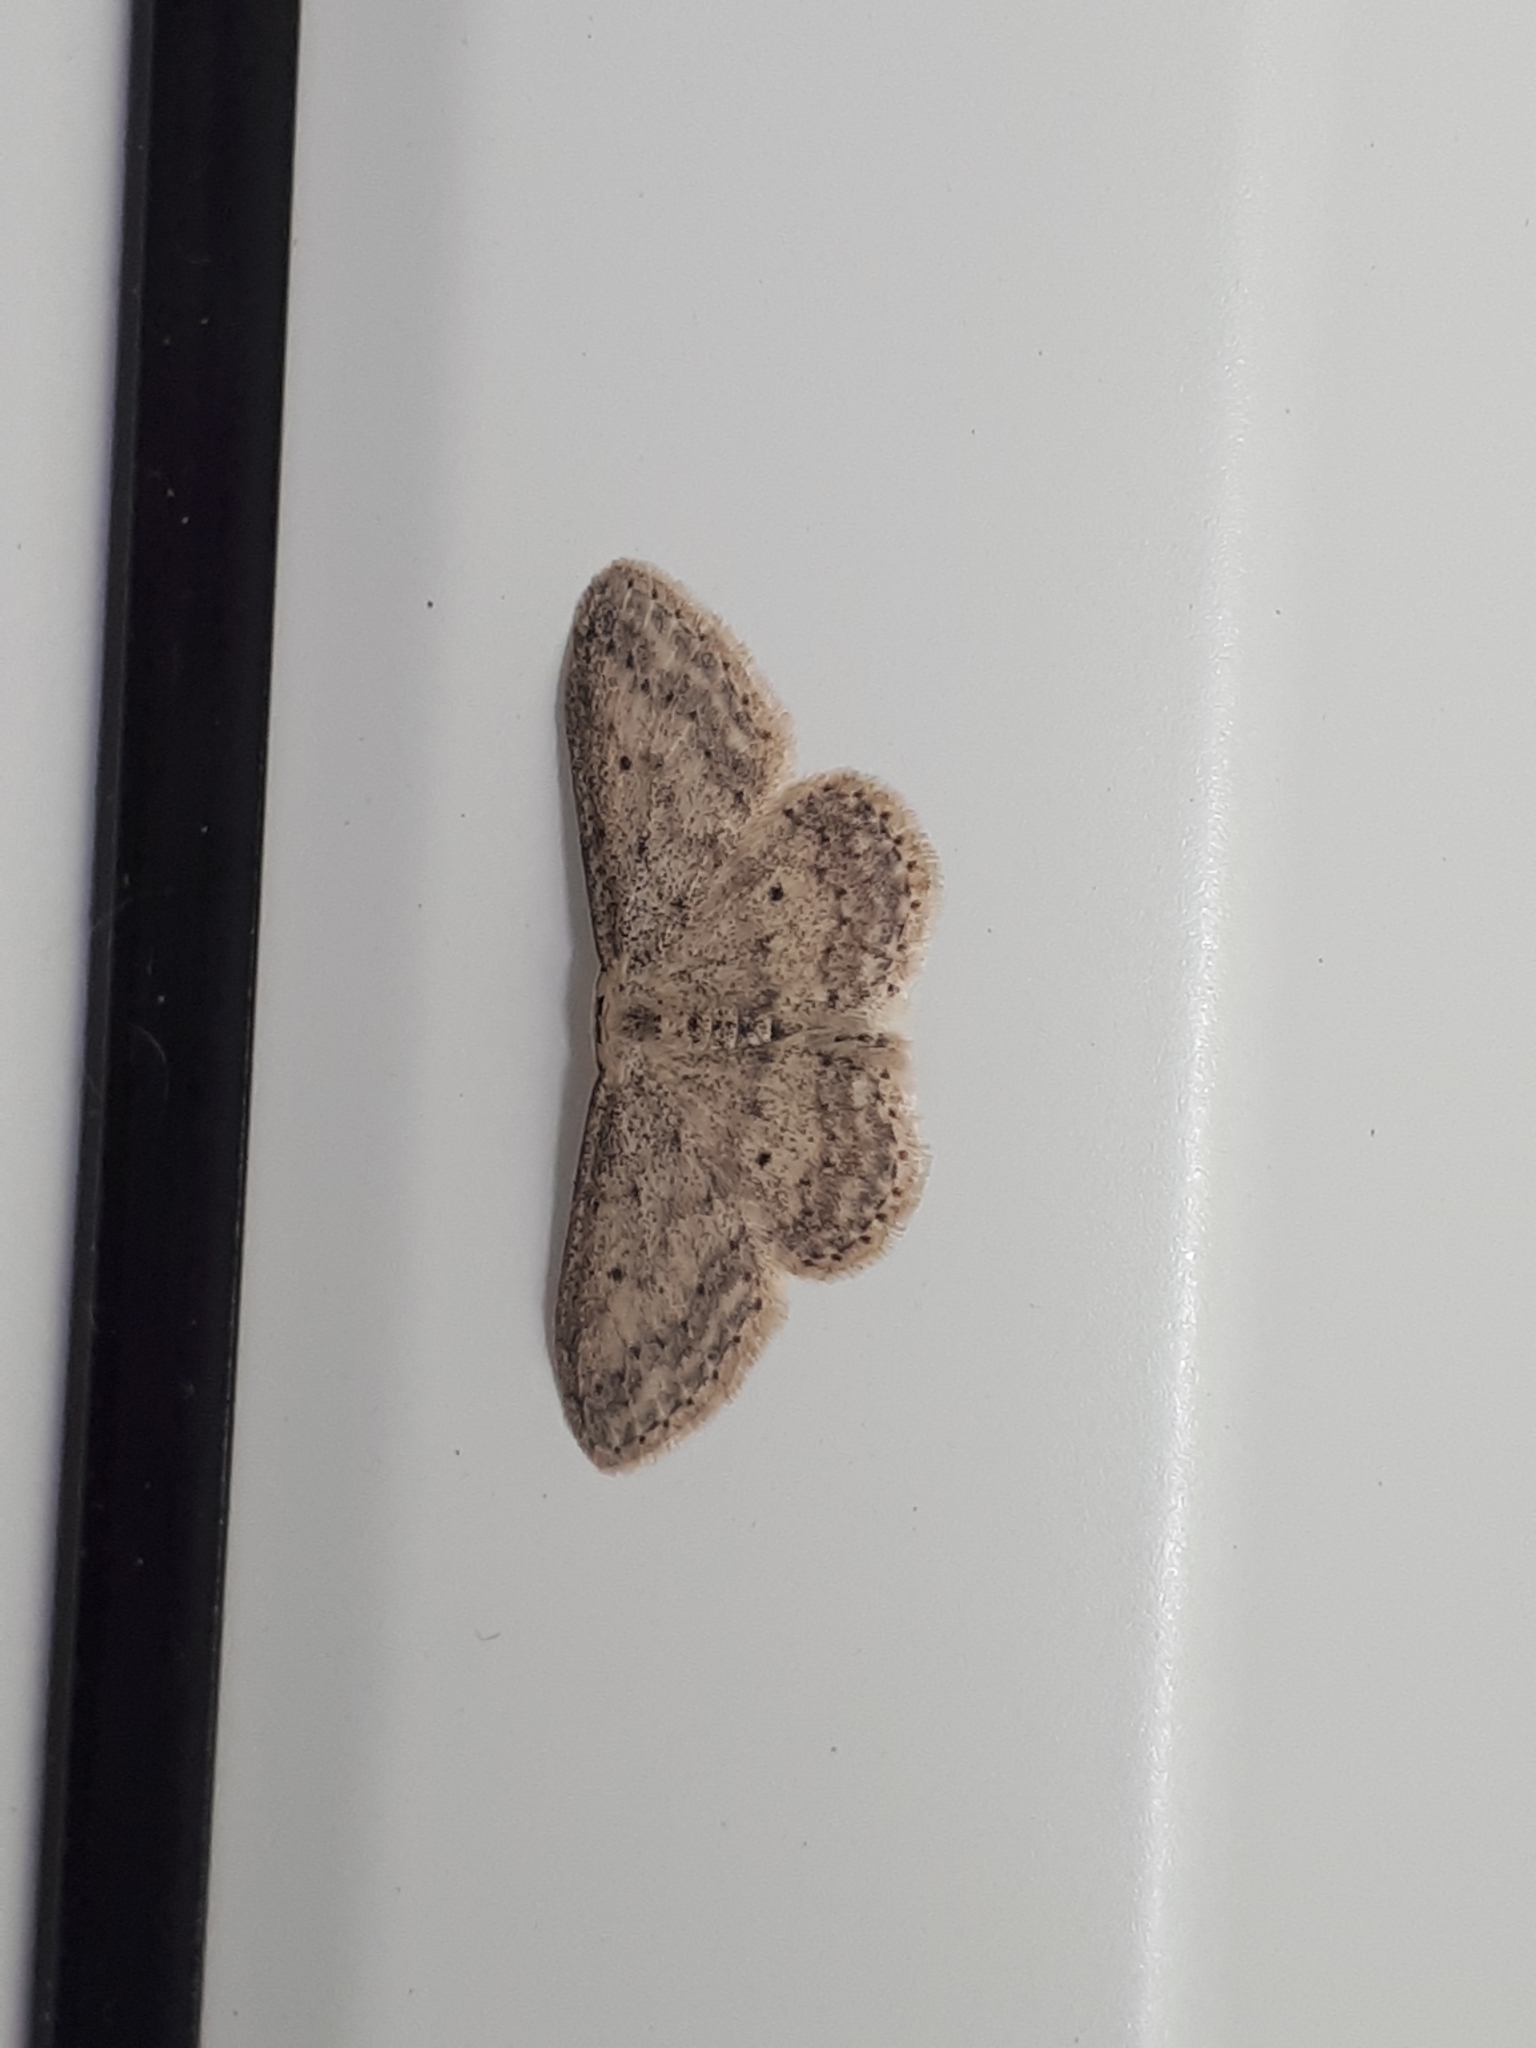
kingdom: Animalia
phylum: Arthropoda
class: Insecta
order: Lepidoptera
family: Geometridae
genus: Idaea
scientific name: Idaea seriata
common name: Small dusty wave
